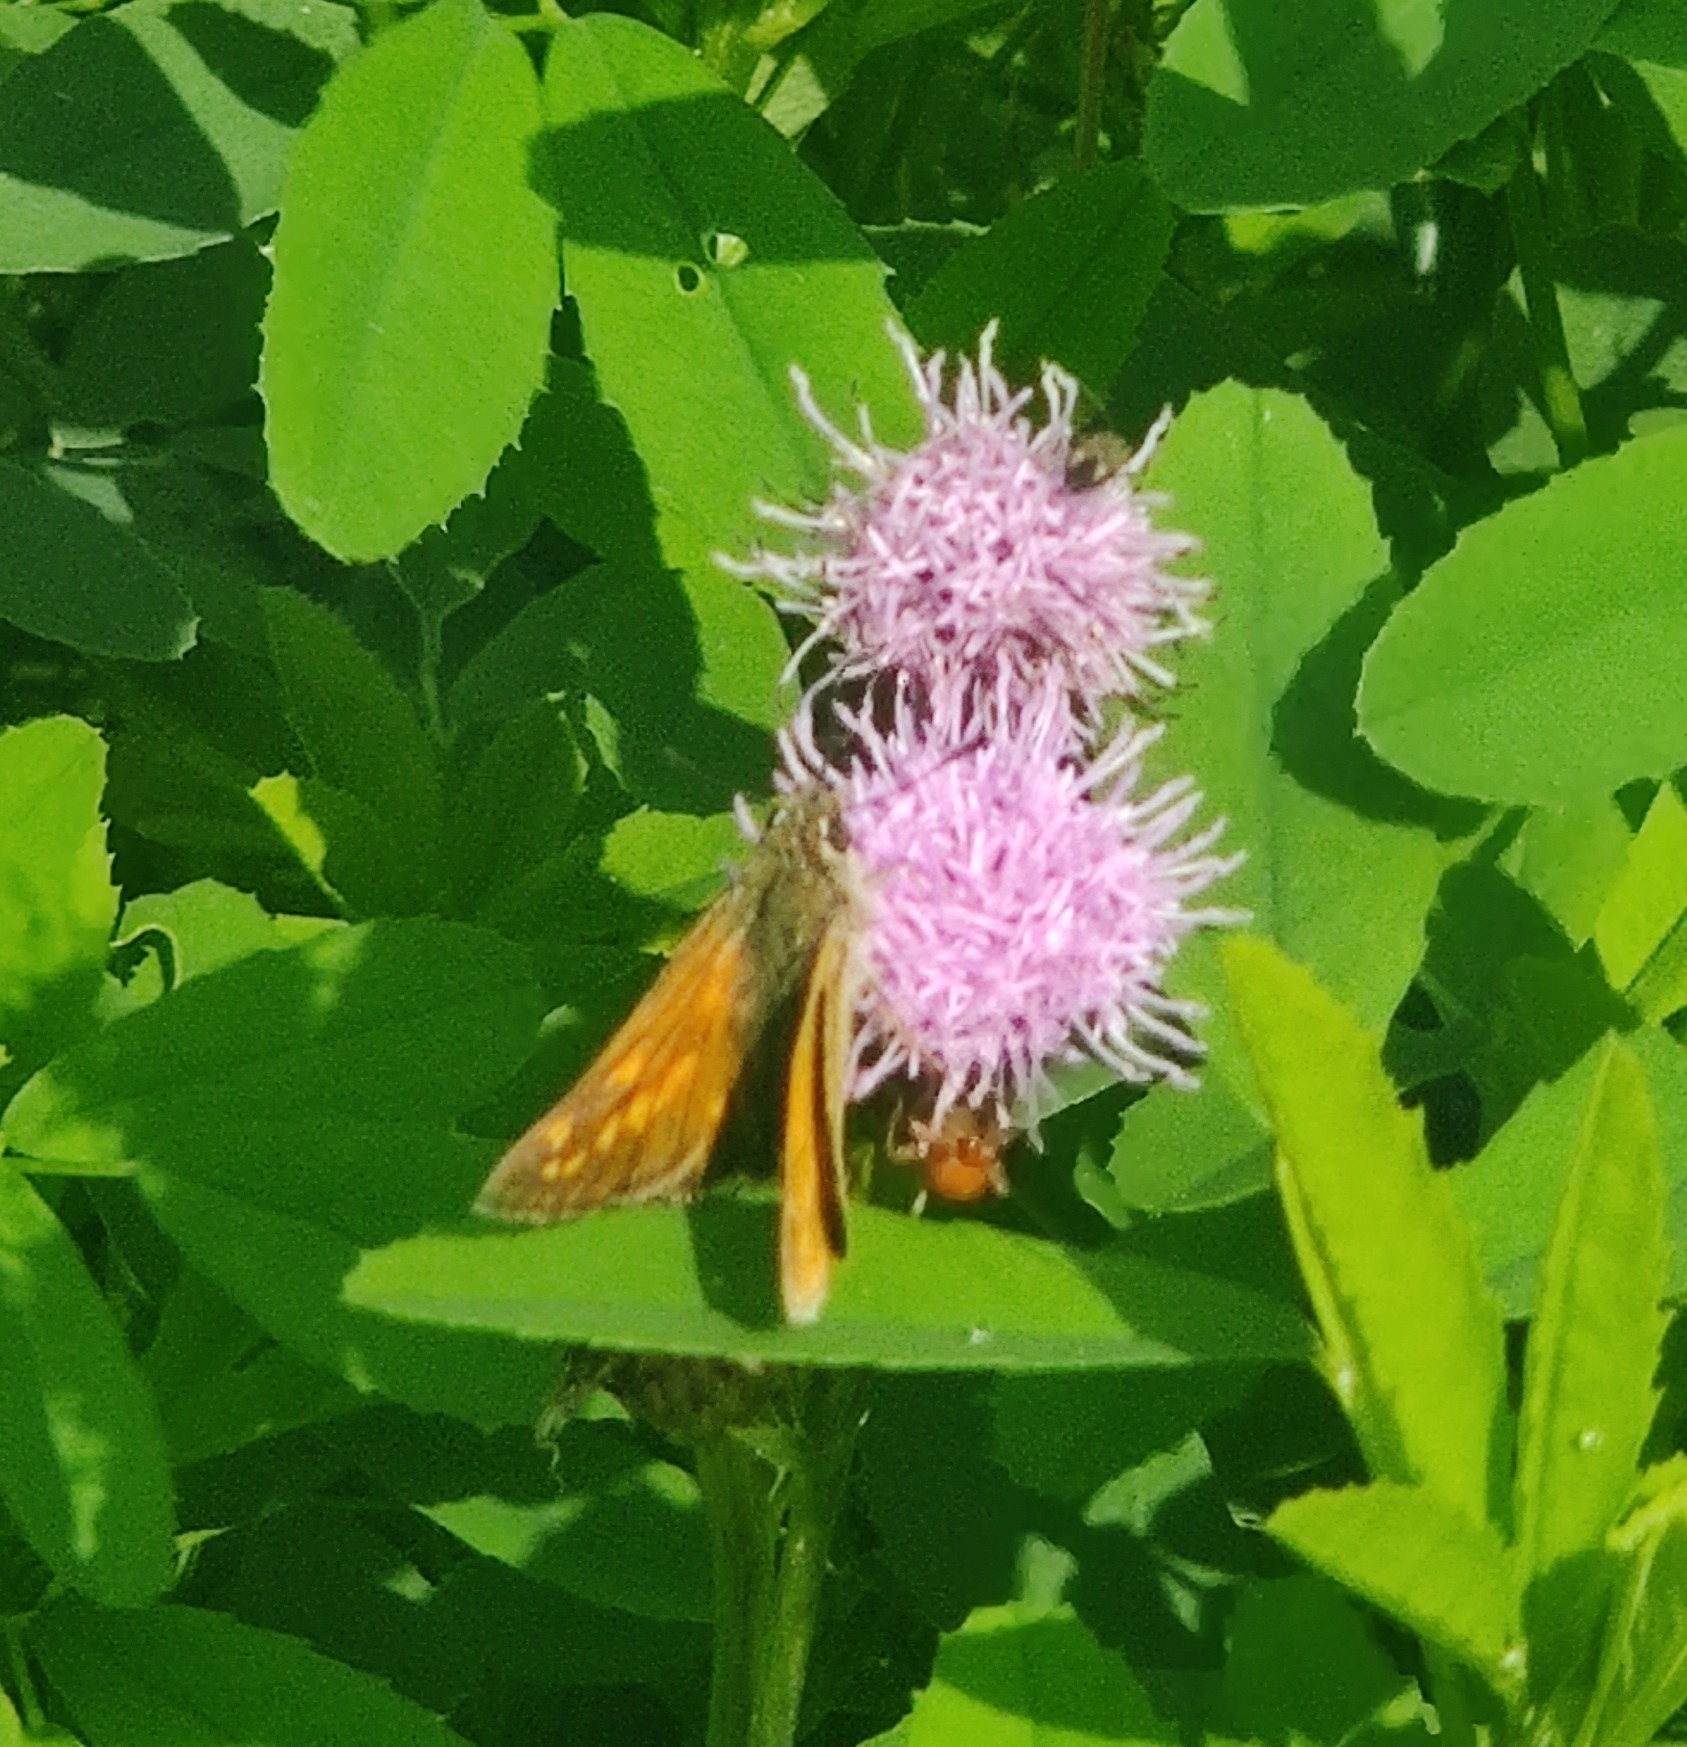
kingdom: Animalia
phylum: Arthropoda
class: Insecta
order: Lepidoptera
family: Hesperiidae
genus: Ochlodes
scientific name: Ochlodes venata
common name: Large skipper
